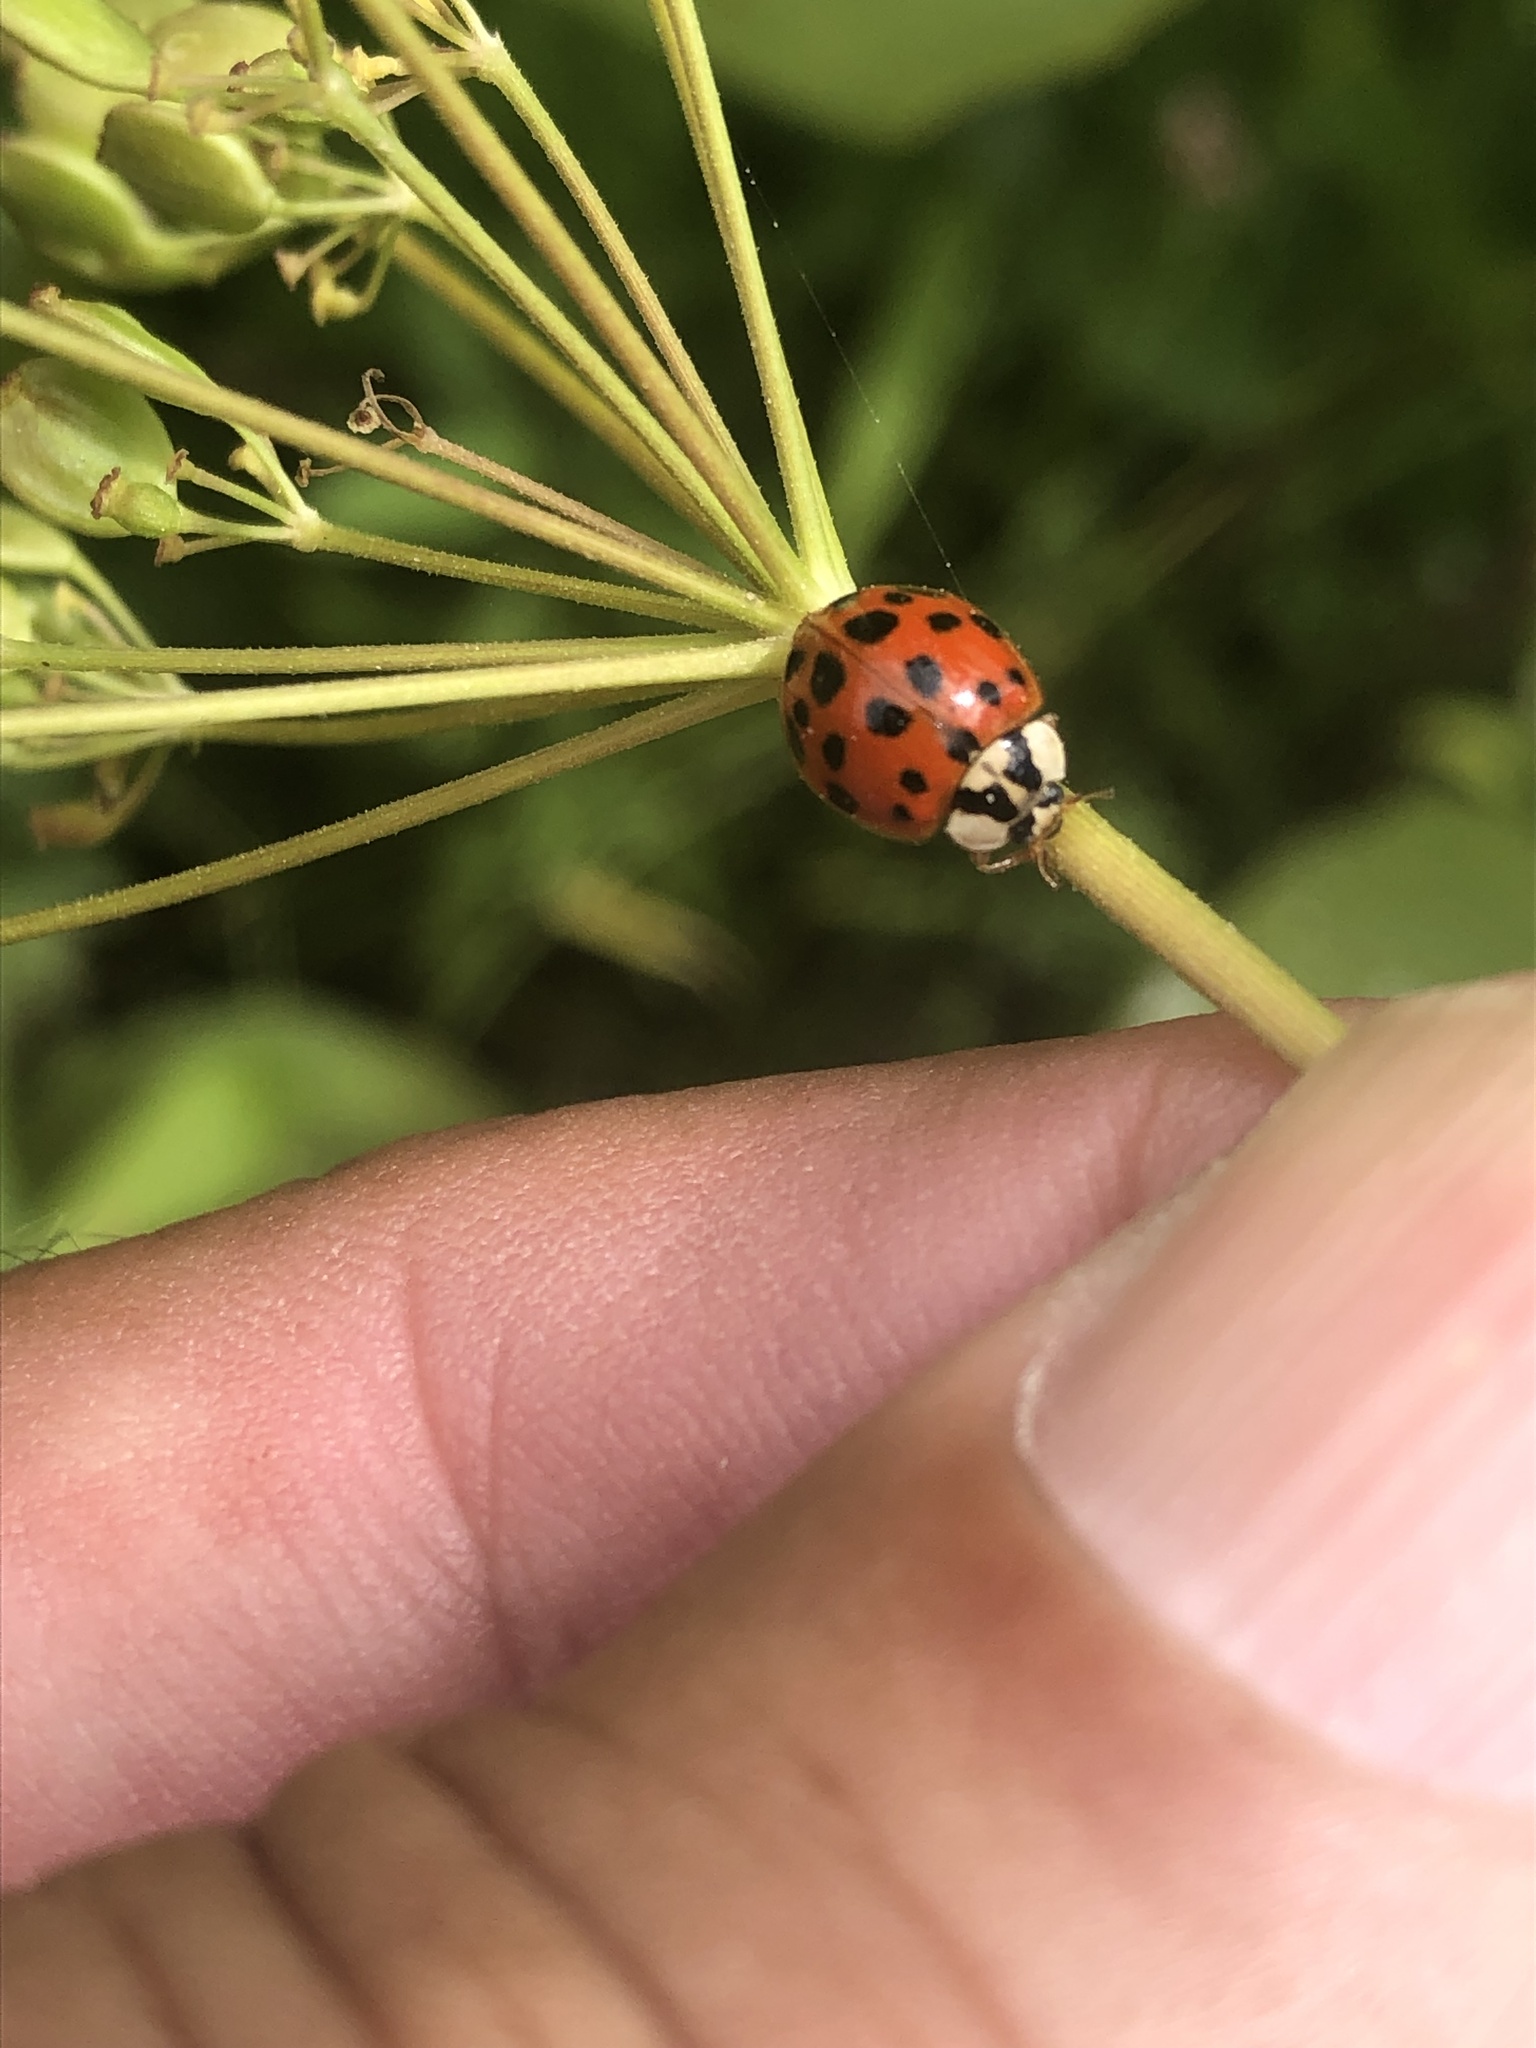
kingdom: Animalia
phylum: Arthropoda
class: Insecta
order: Coleoptera
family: Coccinellidae
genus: Harmonia
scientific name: Harmonia axyridis
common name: Harlequin ladybird
